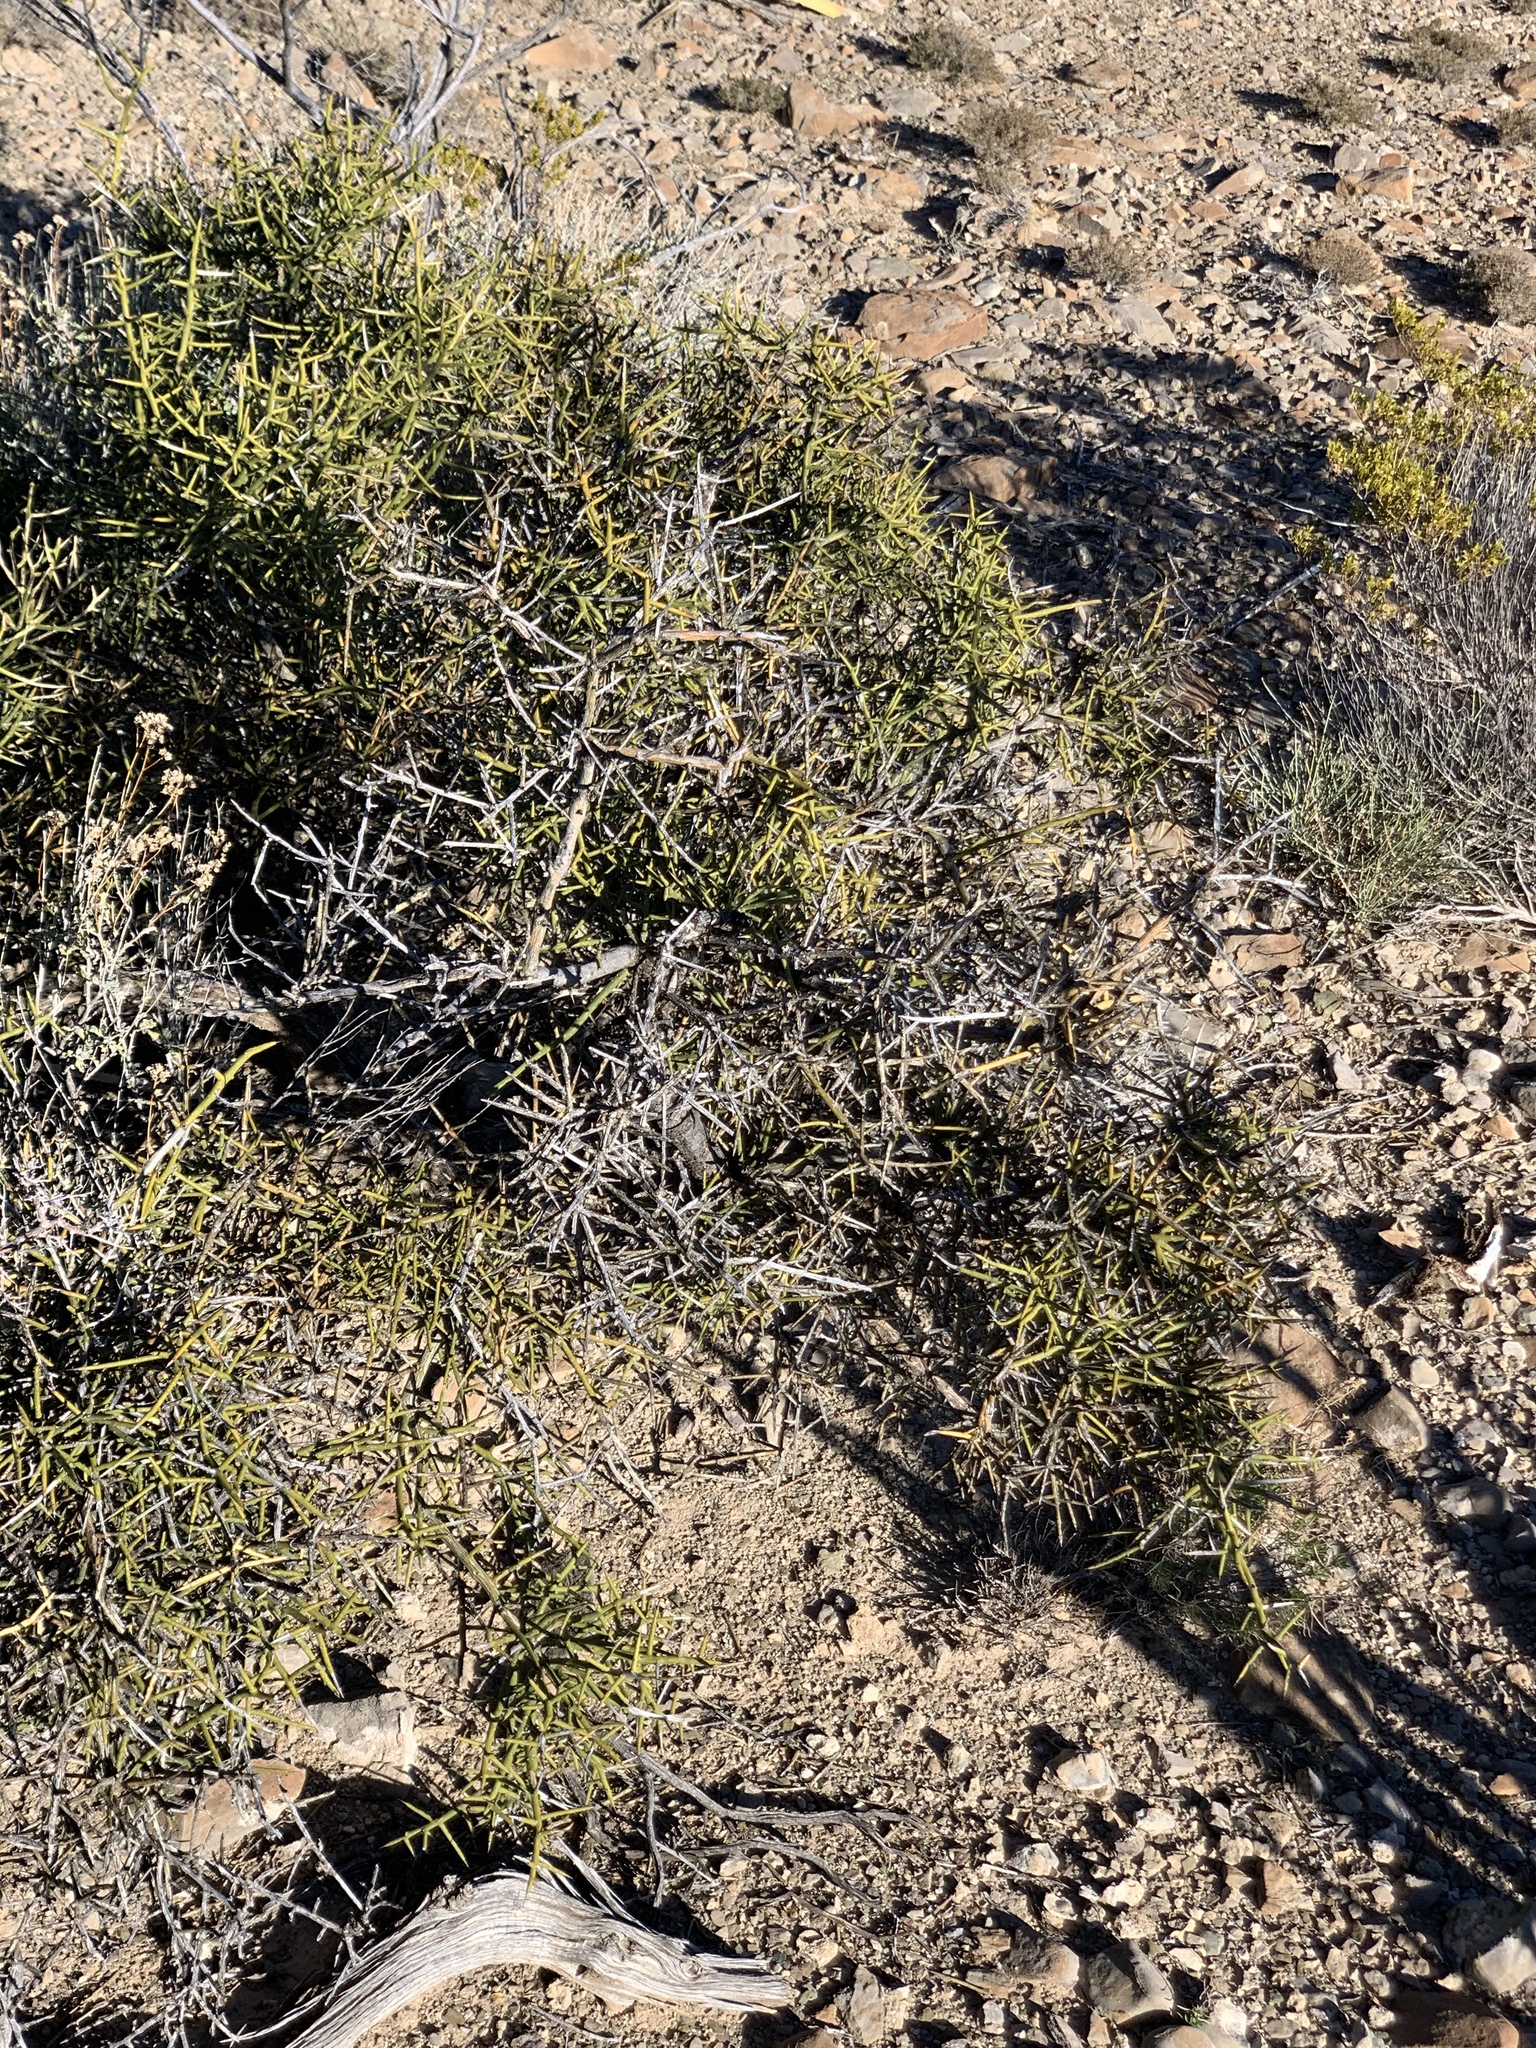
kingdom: Plantae
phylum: Tracheophyta
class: Magnoliopsida
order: Brassicales
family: Koeberliniaceae
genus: Koeberlinia
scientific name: Koeberlinia spinosa
